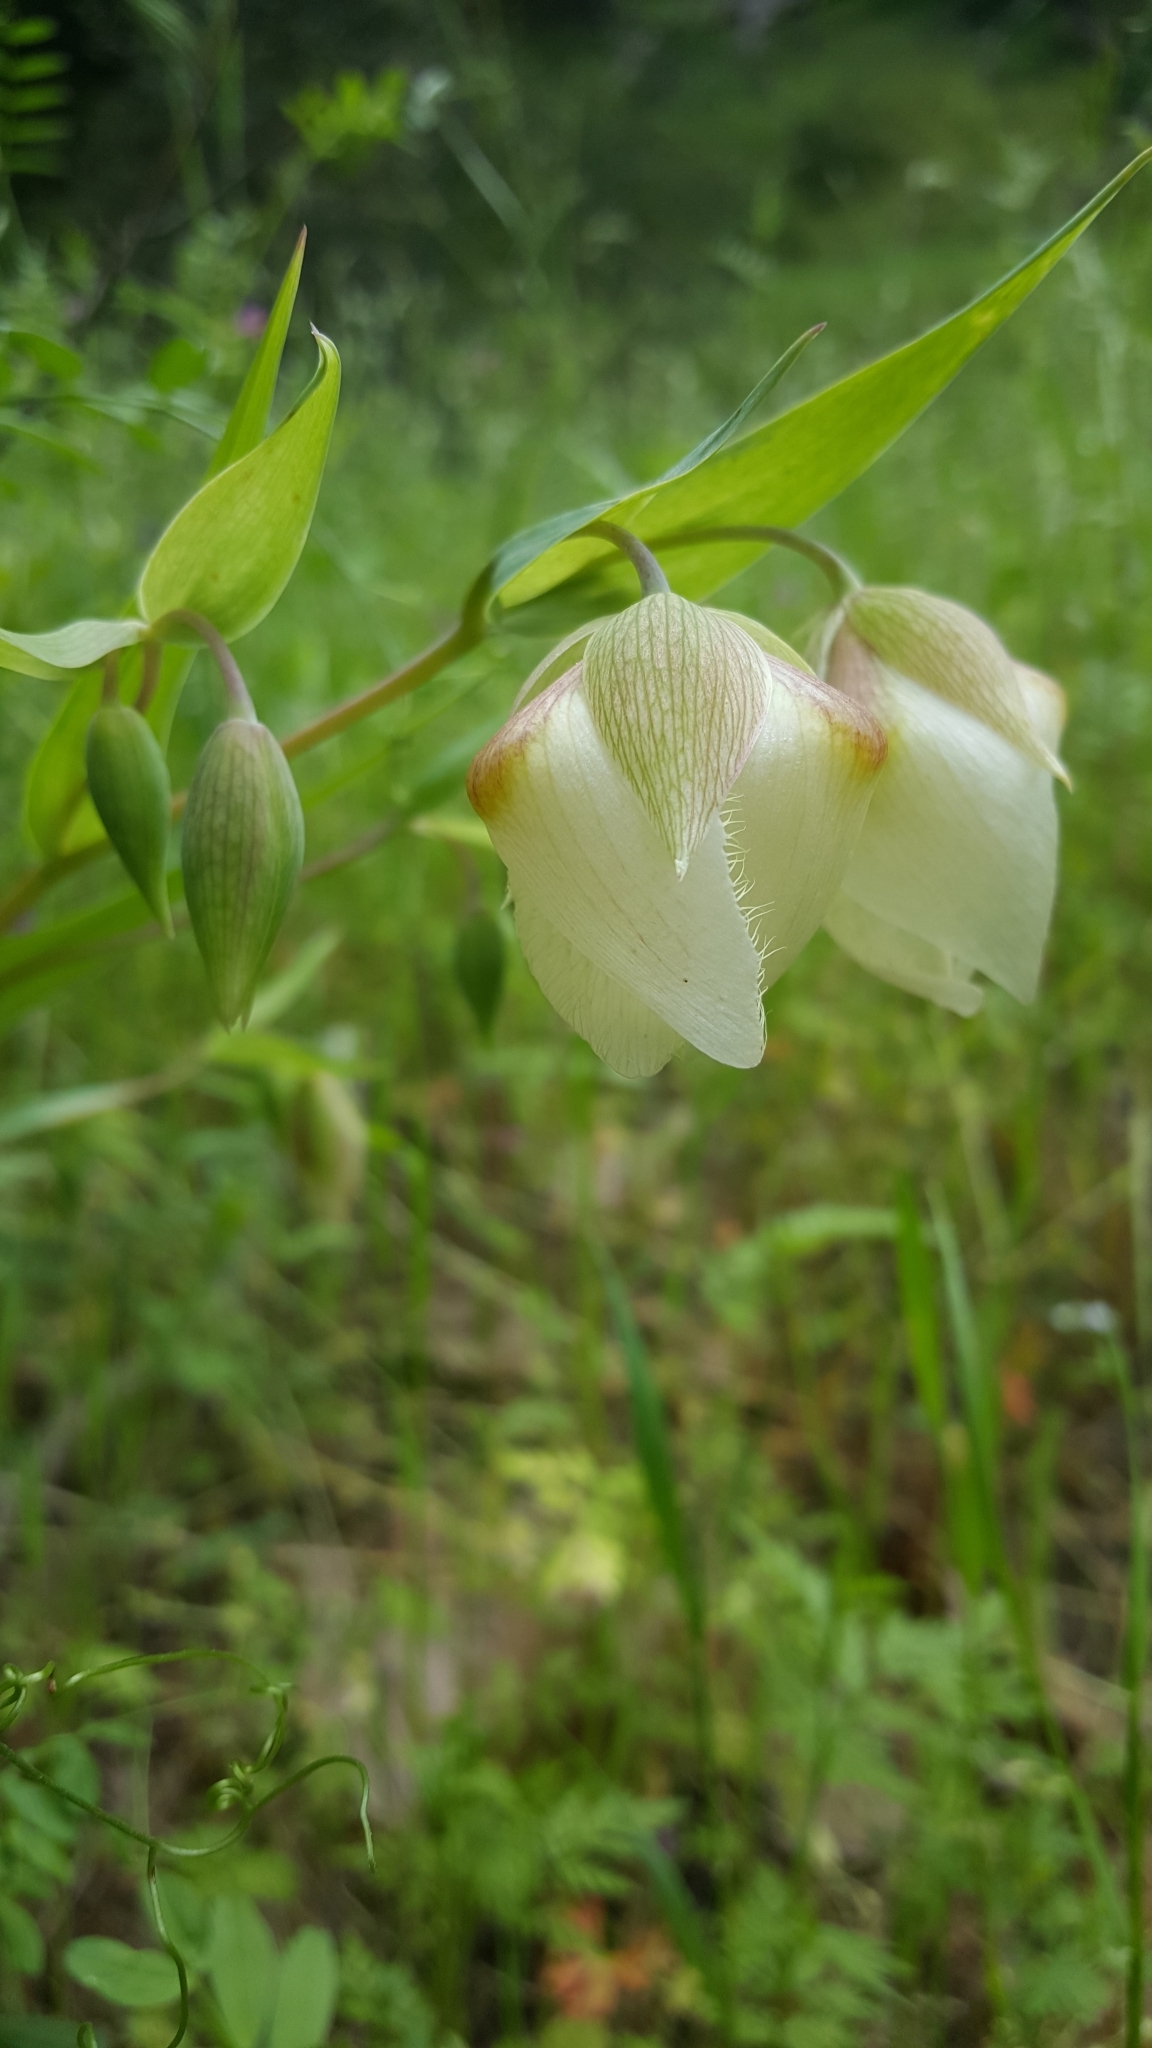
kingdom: Plantae
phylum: Tracheophyta
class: Liliopsida
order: Liliales
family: Liliaceae
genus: Calochortus
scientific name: Calochortus albus
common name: Fairy-lantern
